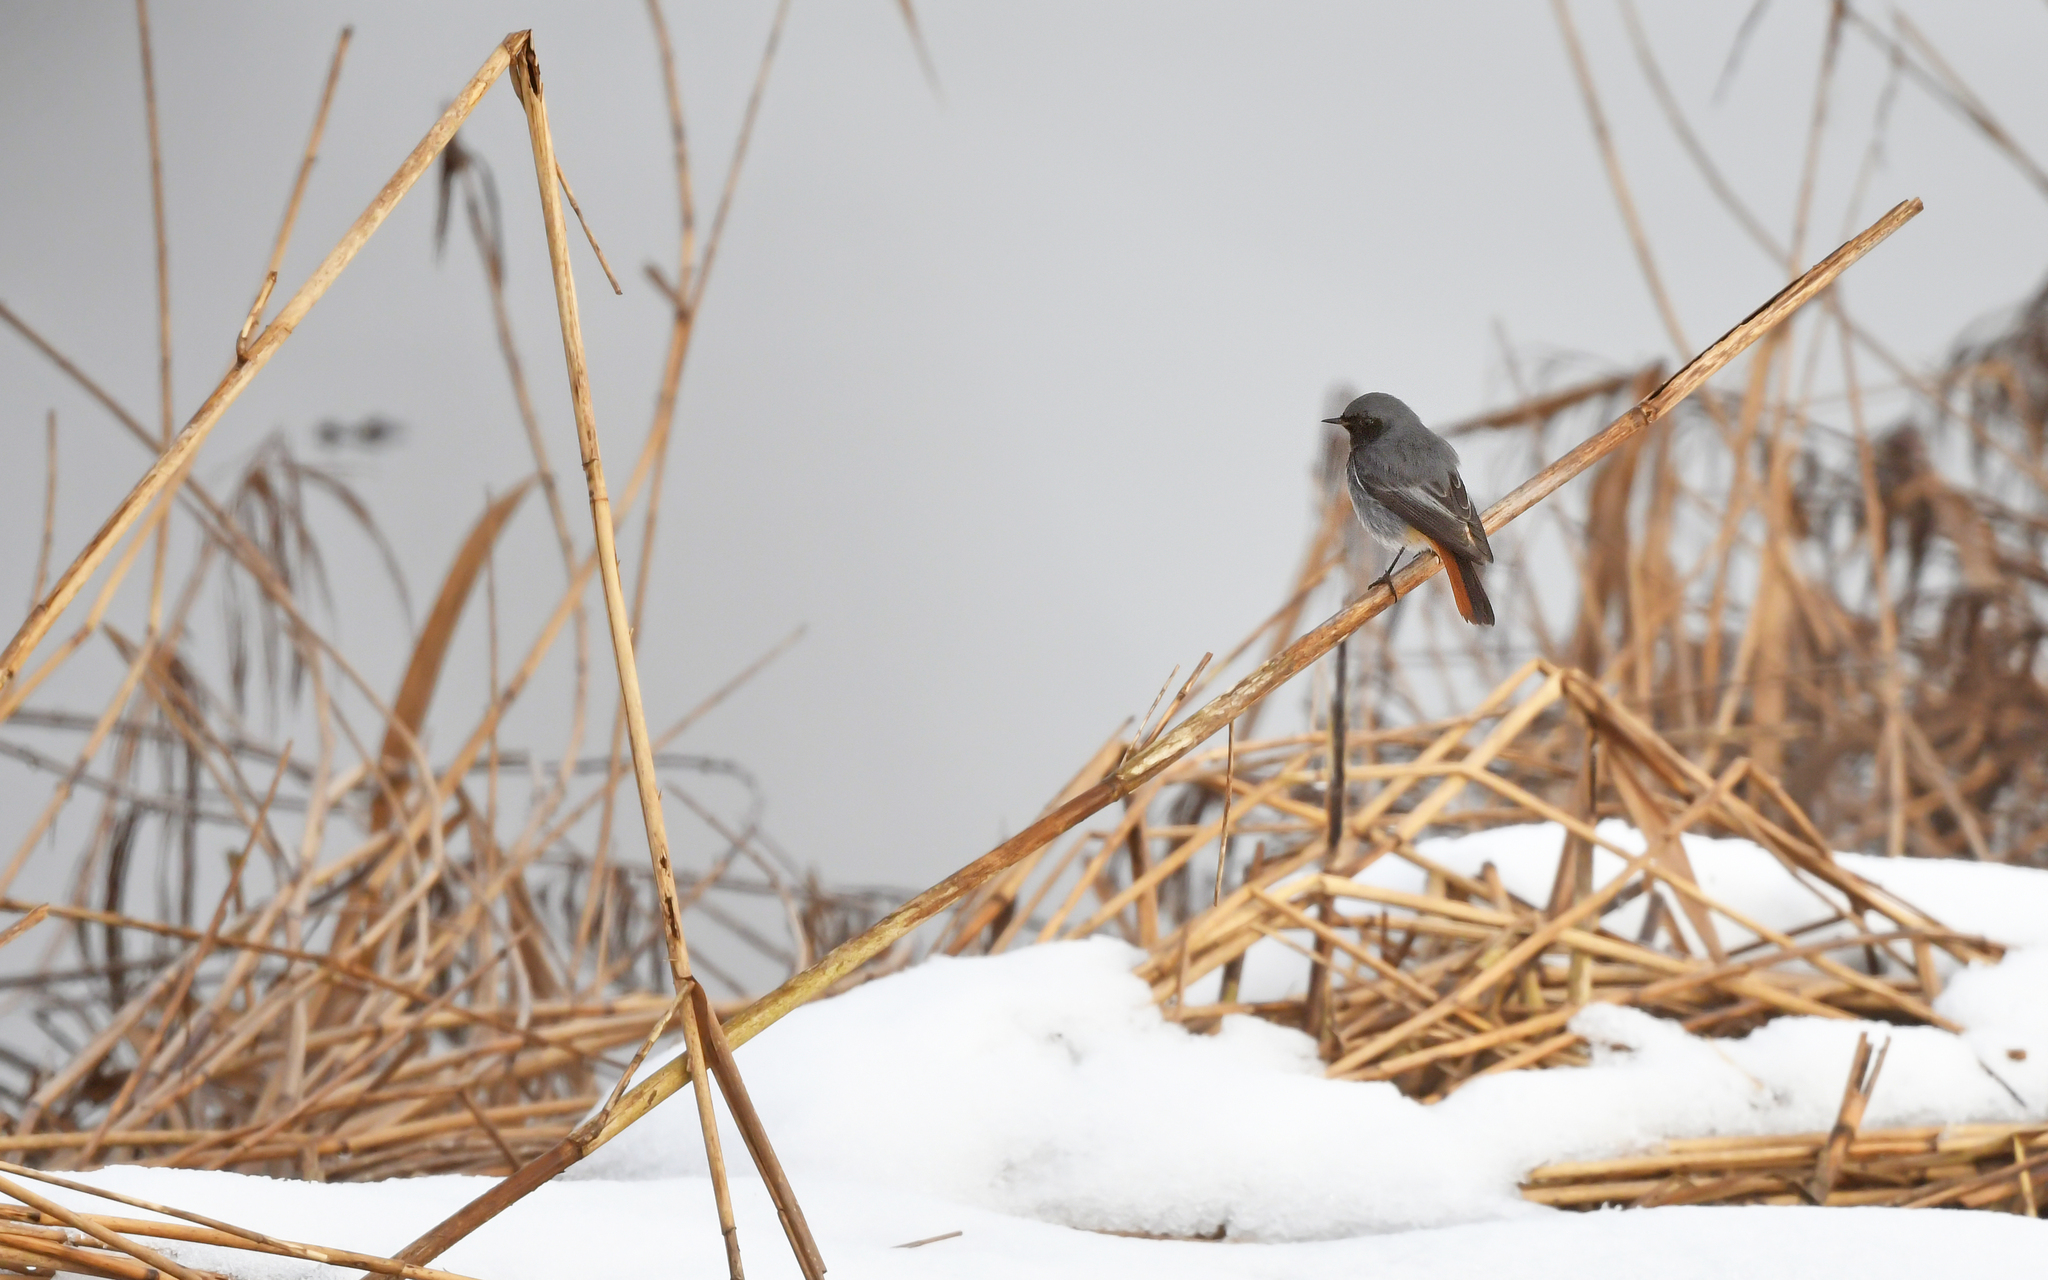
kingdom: Animalia
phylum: Chordata
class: Aves
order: Passeriformes
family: Muscicapidae
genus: Phoenicurus
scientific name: Phoenicurus ochruros
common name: Black redstart
